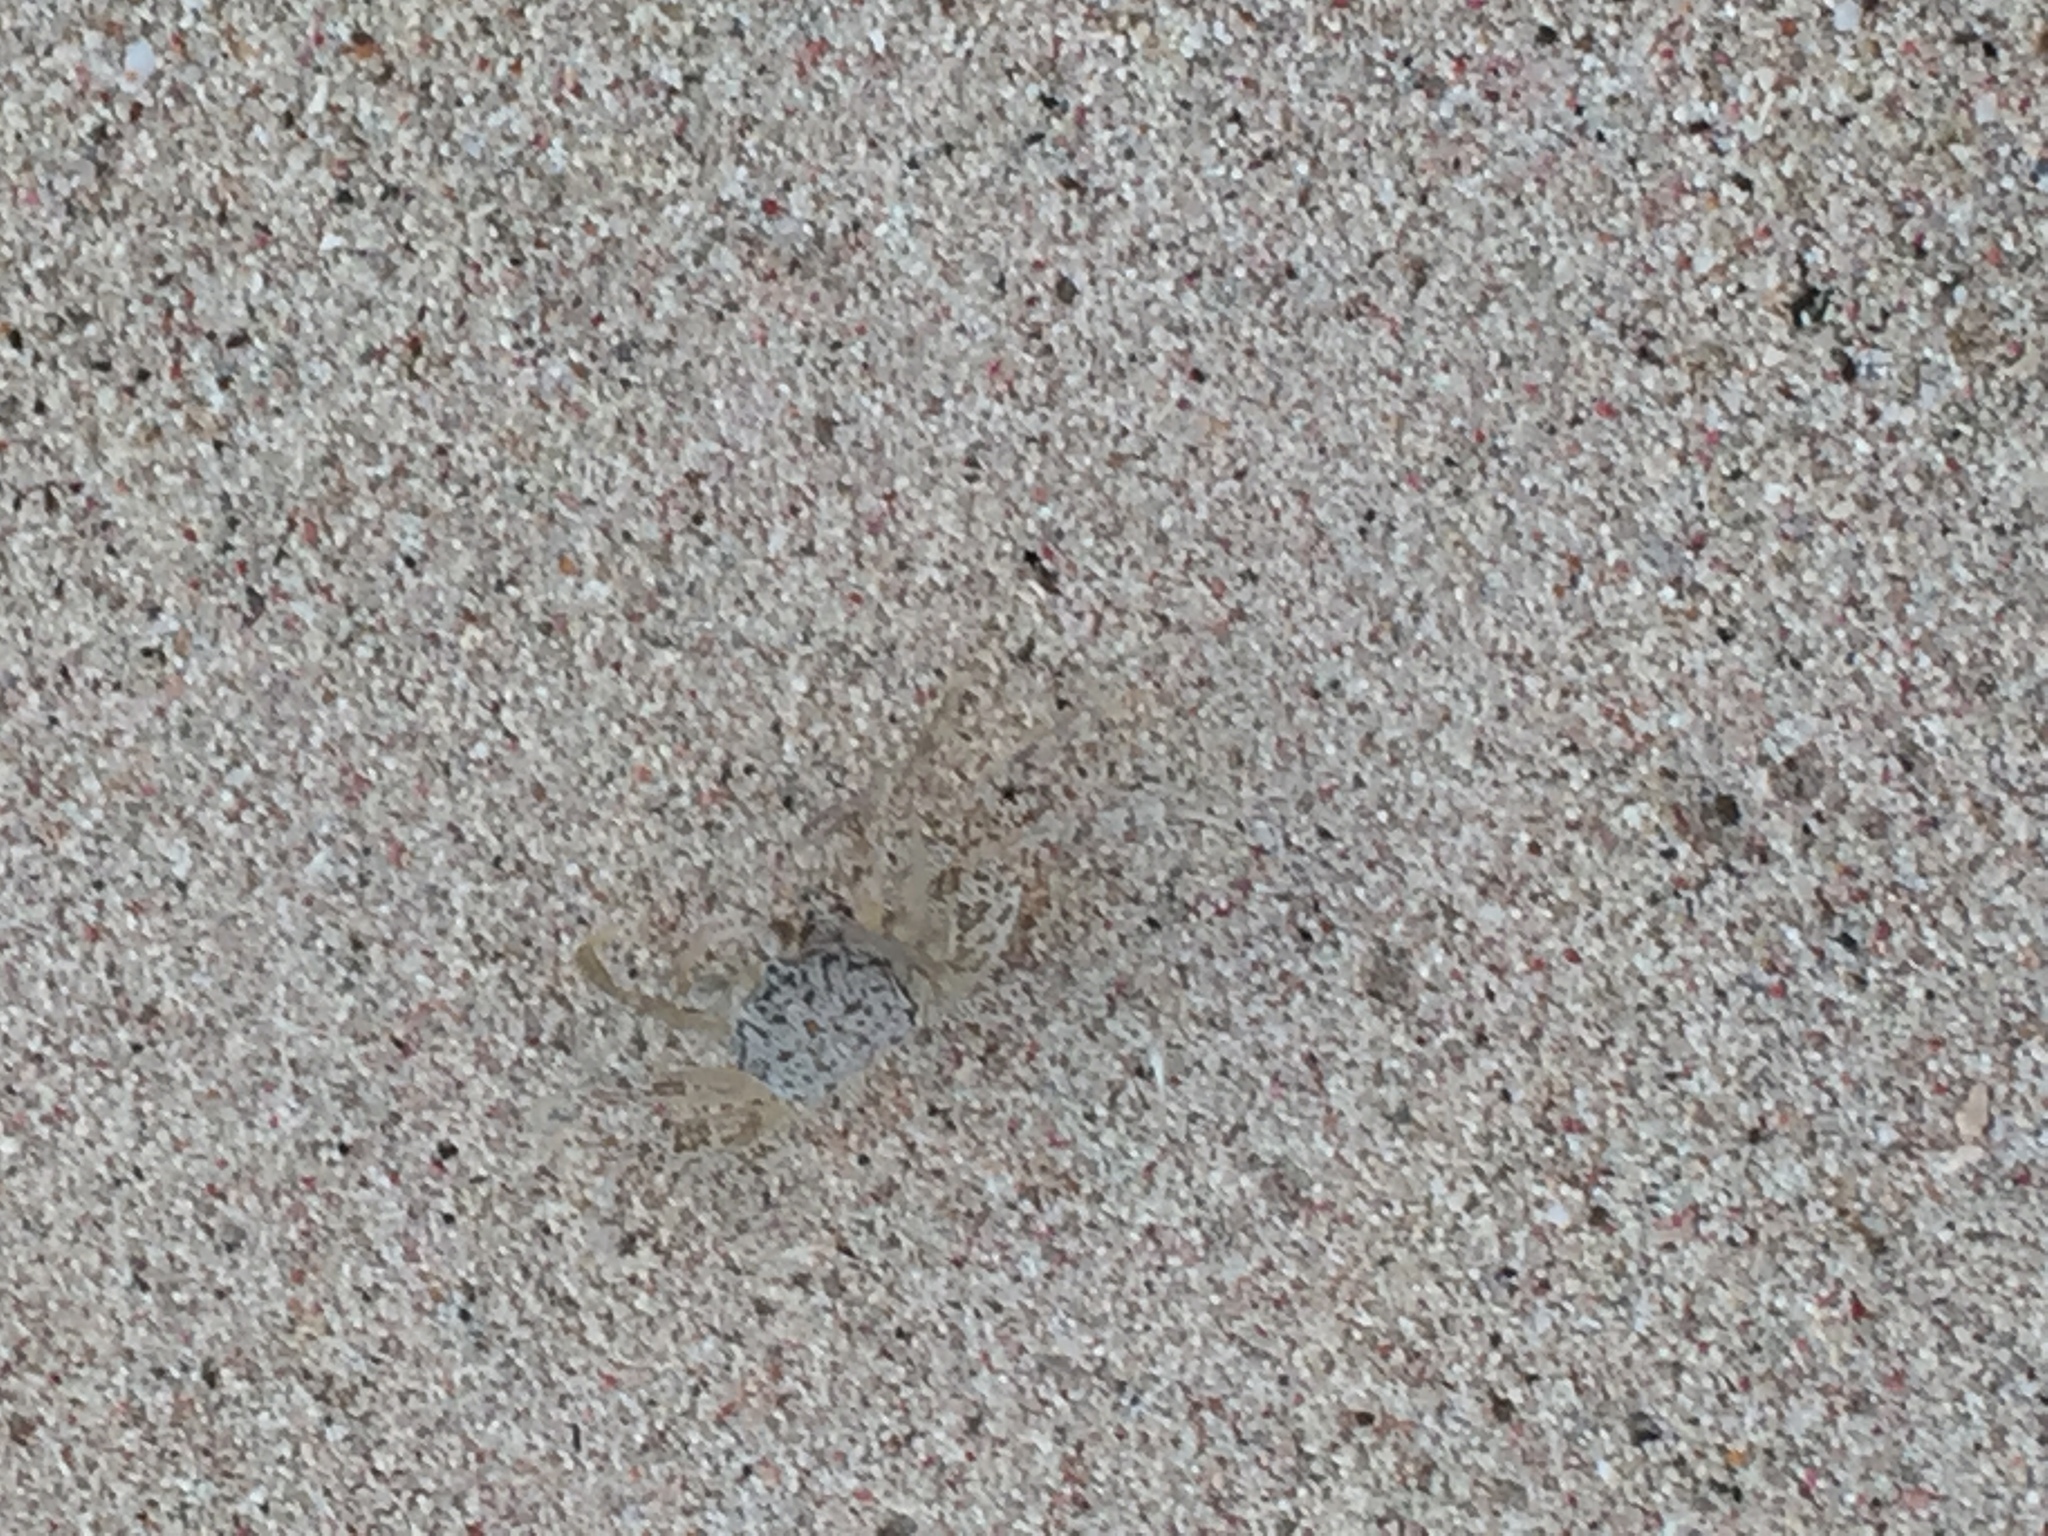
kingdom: Animalia
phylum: Arthropoda
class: Malacostraca
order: Decapoda
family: Ocypodidae
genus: Ocypode
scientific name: Ocypode quadrata
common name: Ghost crab
